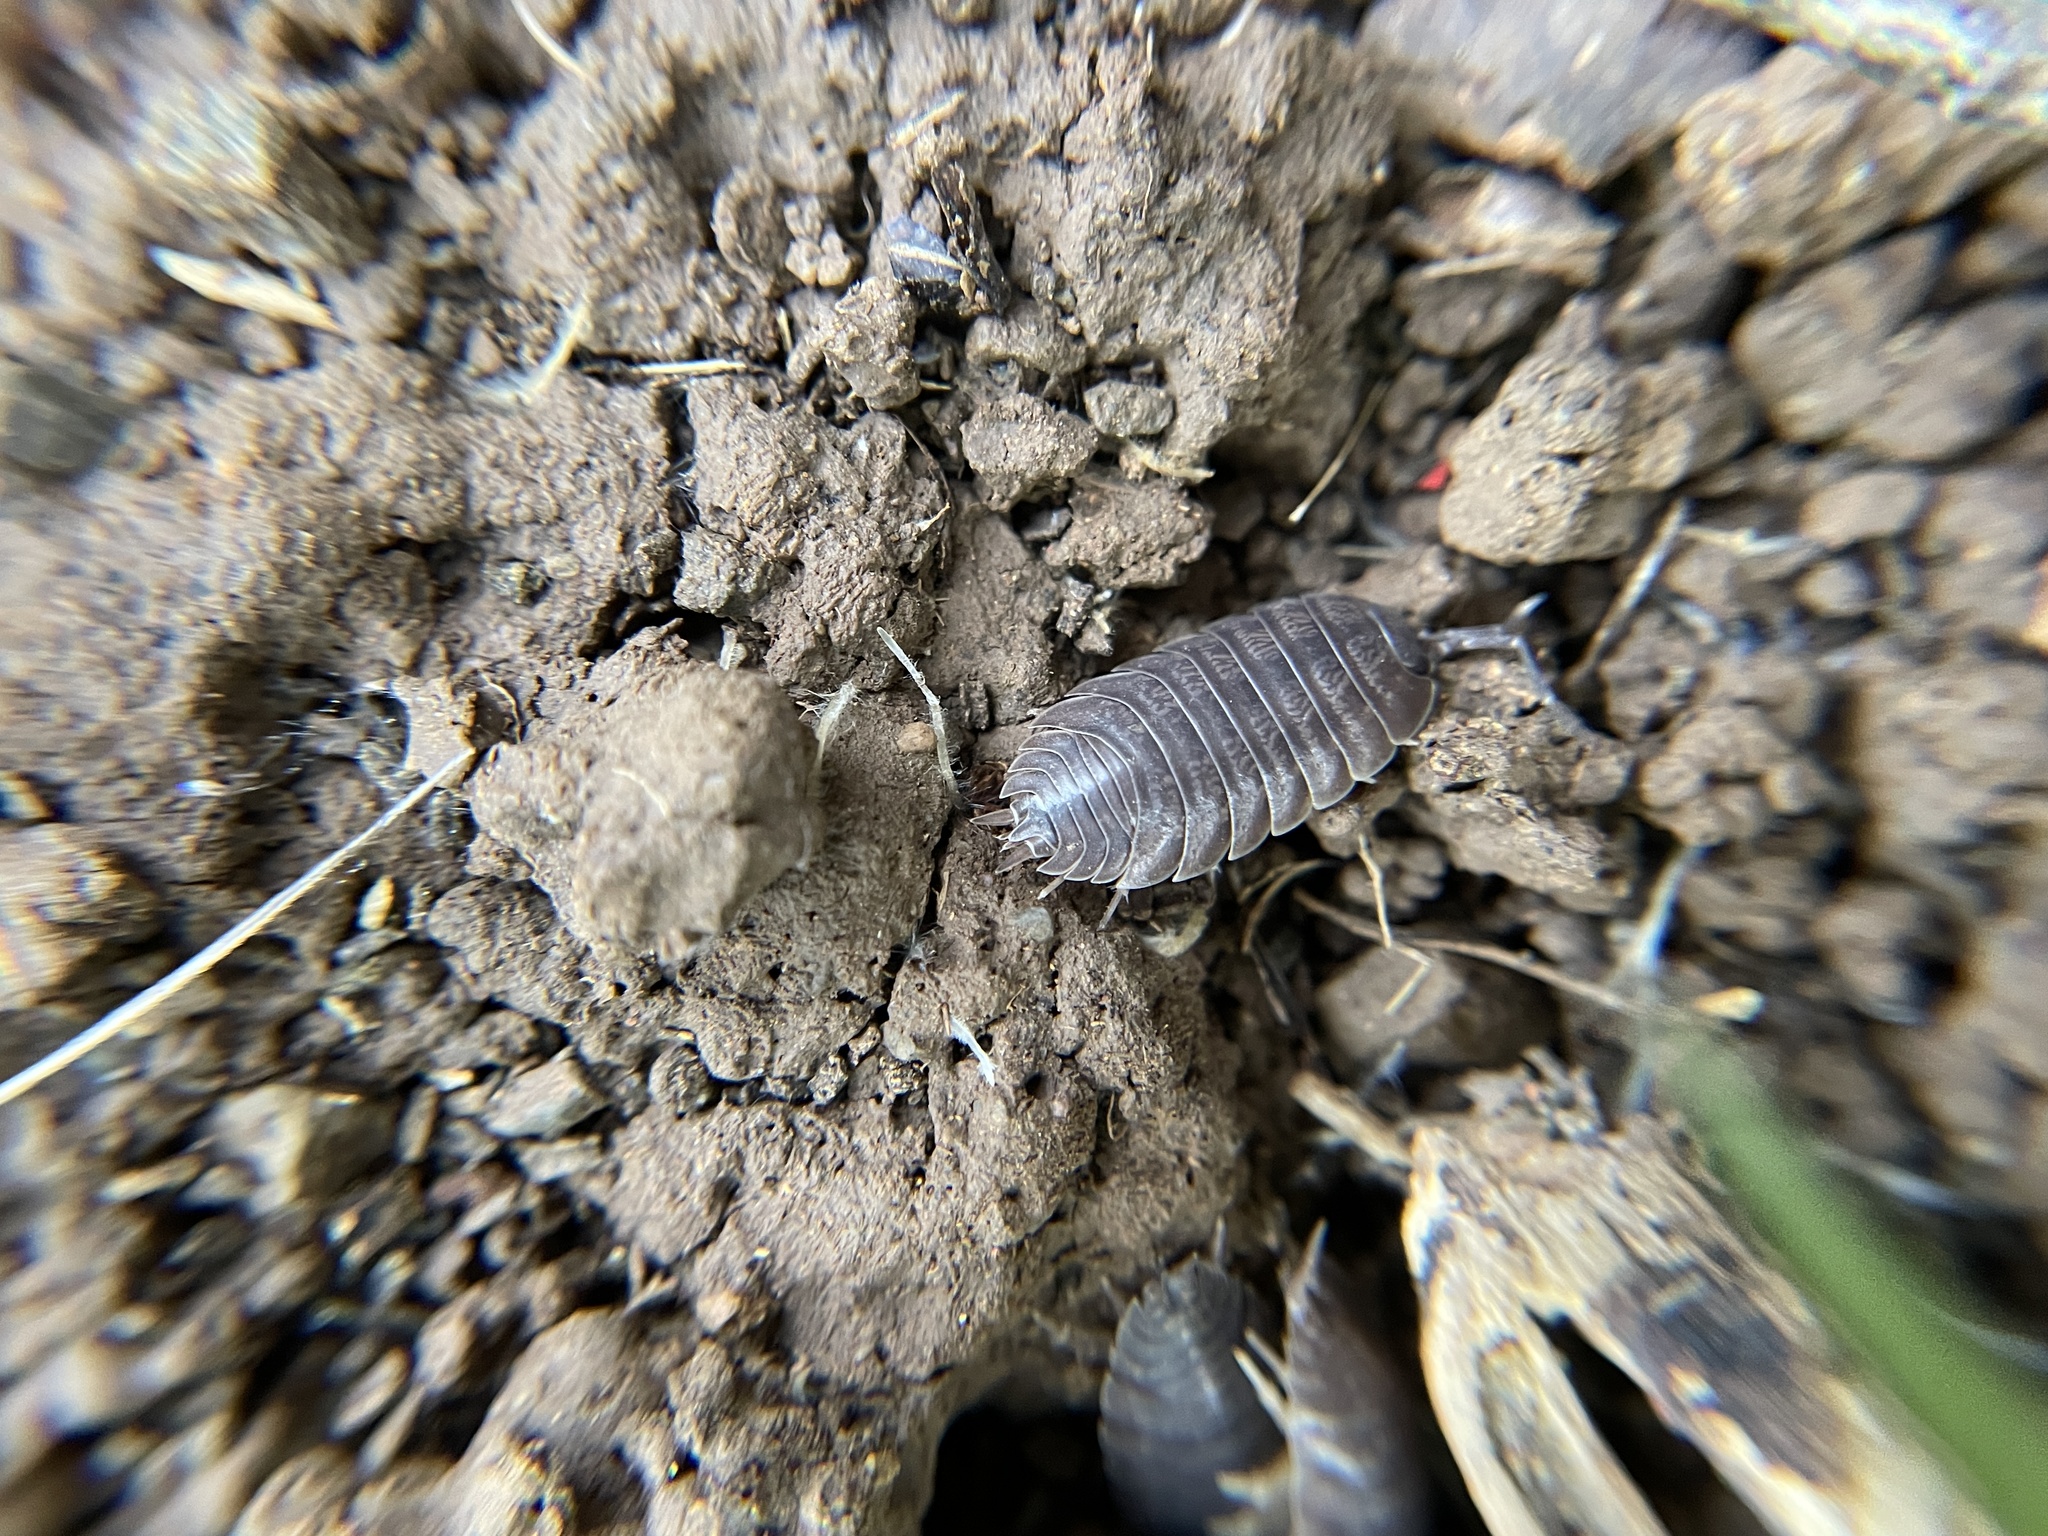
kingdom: Animalia
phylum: Arthropoda
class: Malacostraca
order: Isopoda
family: Porcellionidae
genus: Porcellio
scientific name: Porcellio laevis
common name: Swift woodlouse
